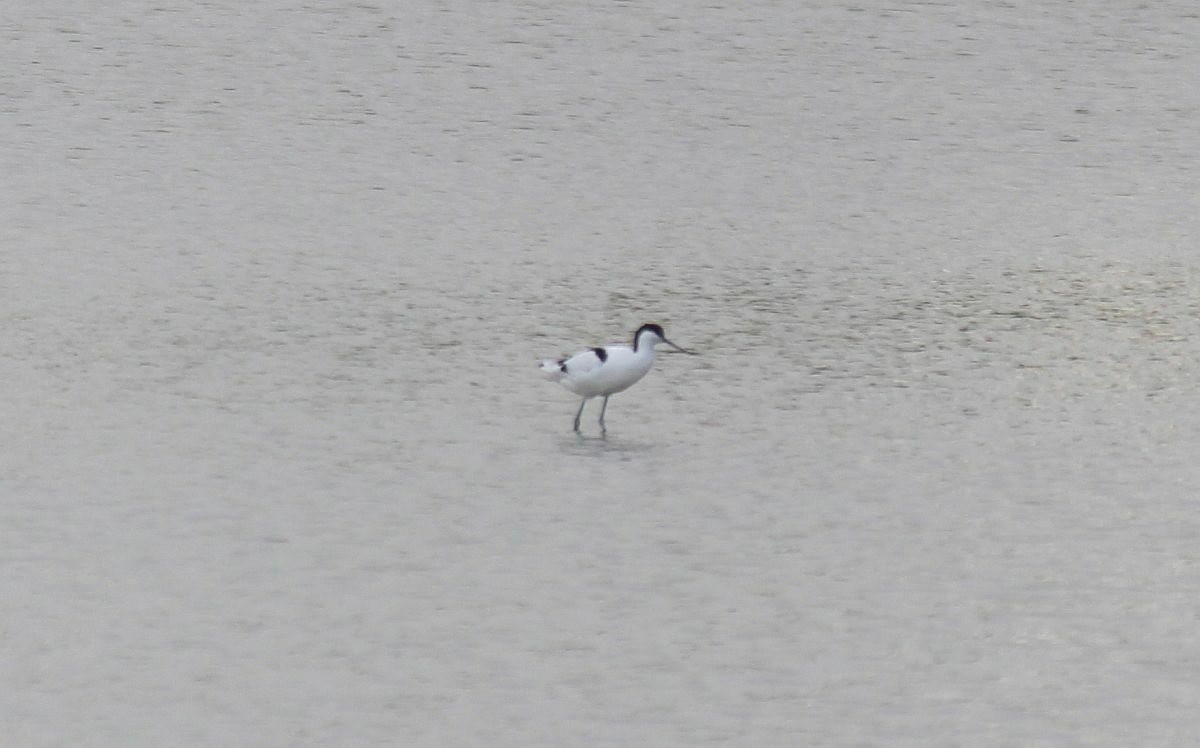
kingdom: Animalia
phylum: Chordata
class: Aves
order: Charadriiformes
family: Recurvirostridae
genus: Recurvirostra
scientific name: Recurvirostra avosetta
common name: Pied avocet
